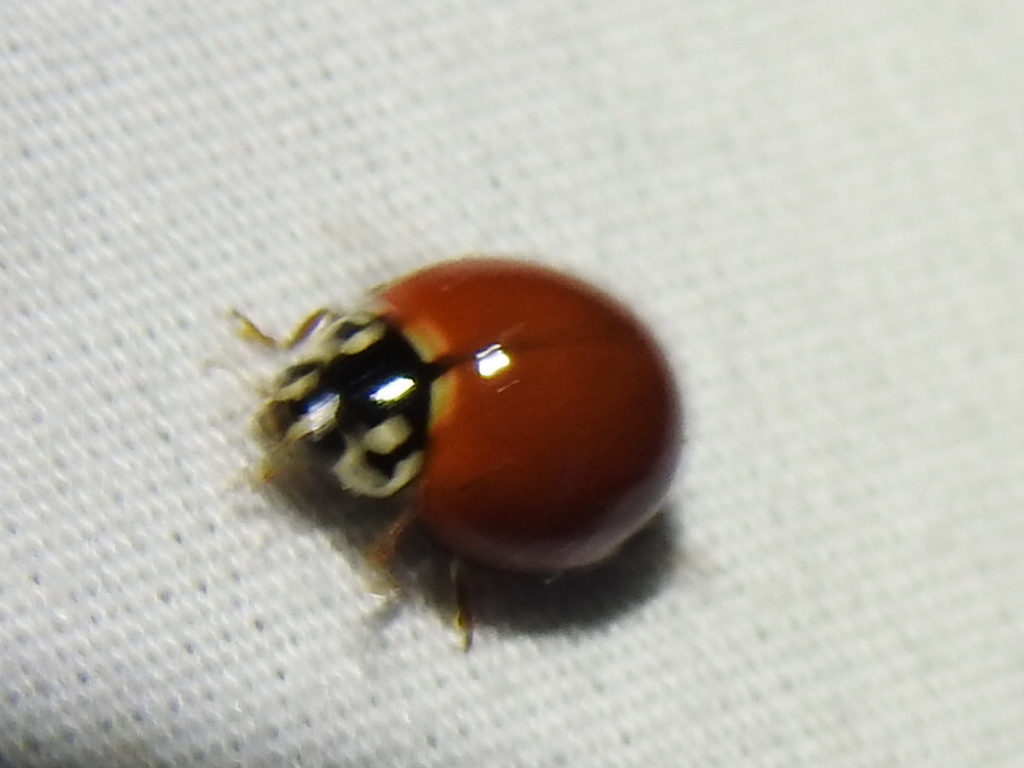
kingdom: Animalia
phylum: Arthropoda
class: Insecta
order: Coleoptera
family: Coccinellidae
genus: Cycloneda
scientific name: Cycloneda sanguinea
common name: Ladybird beetle
